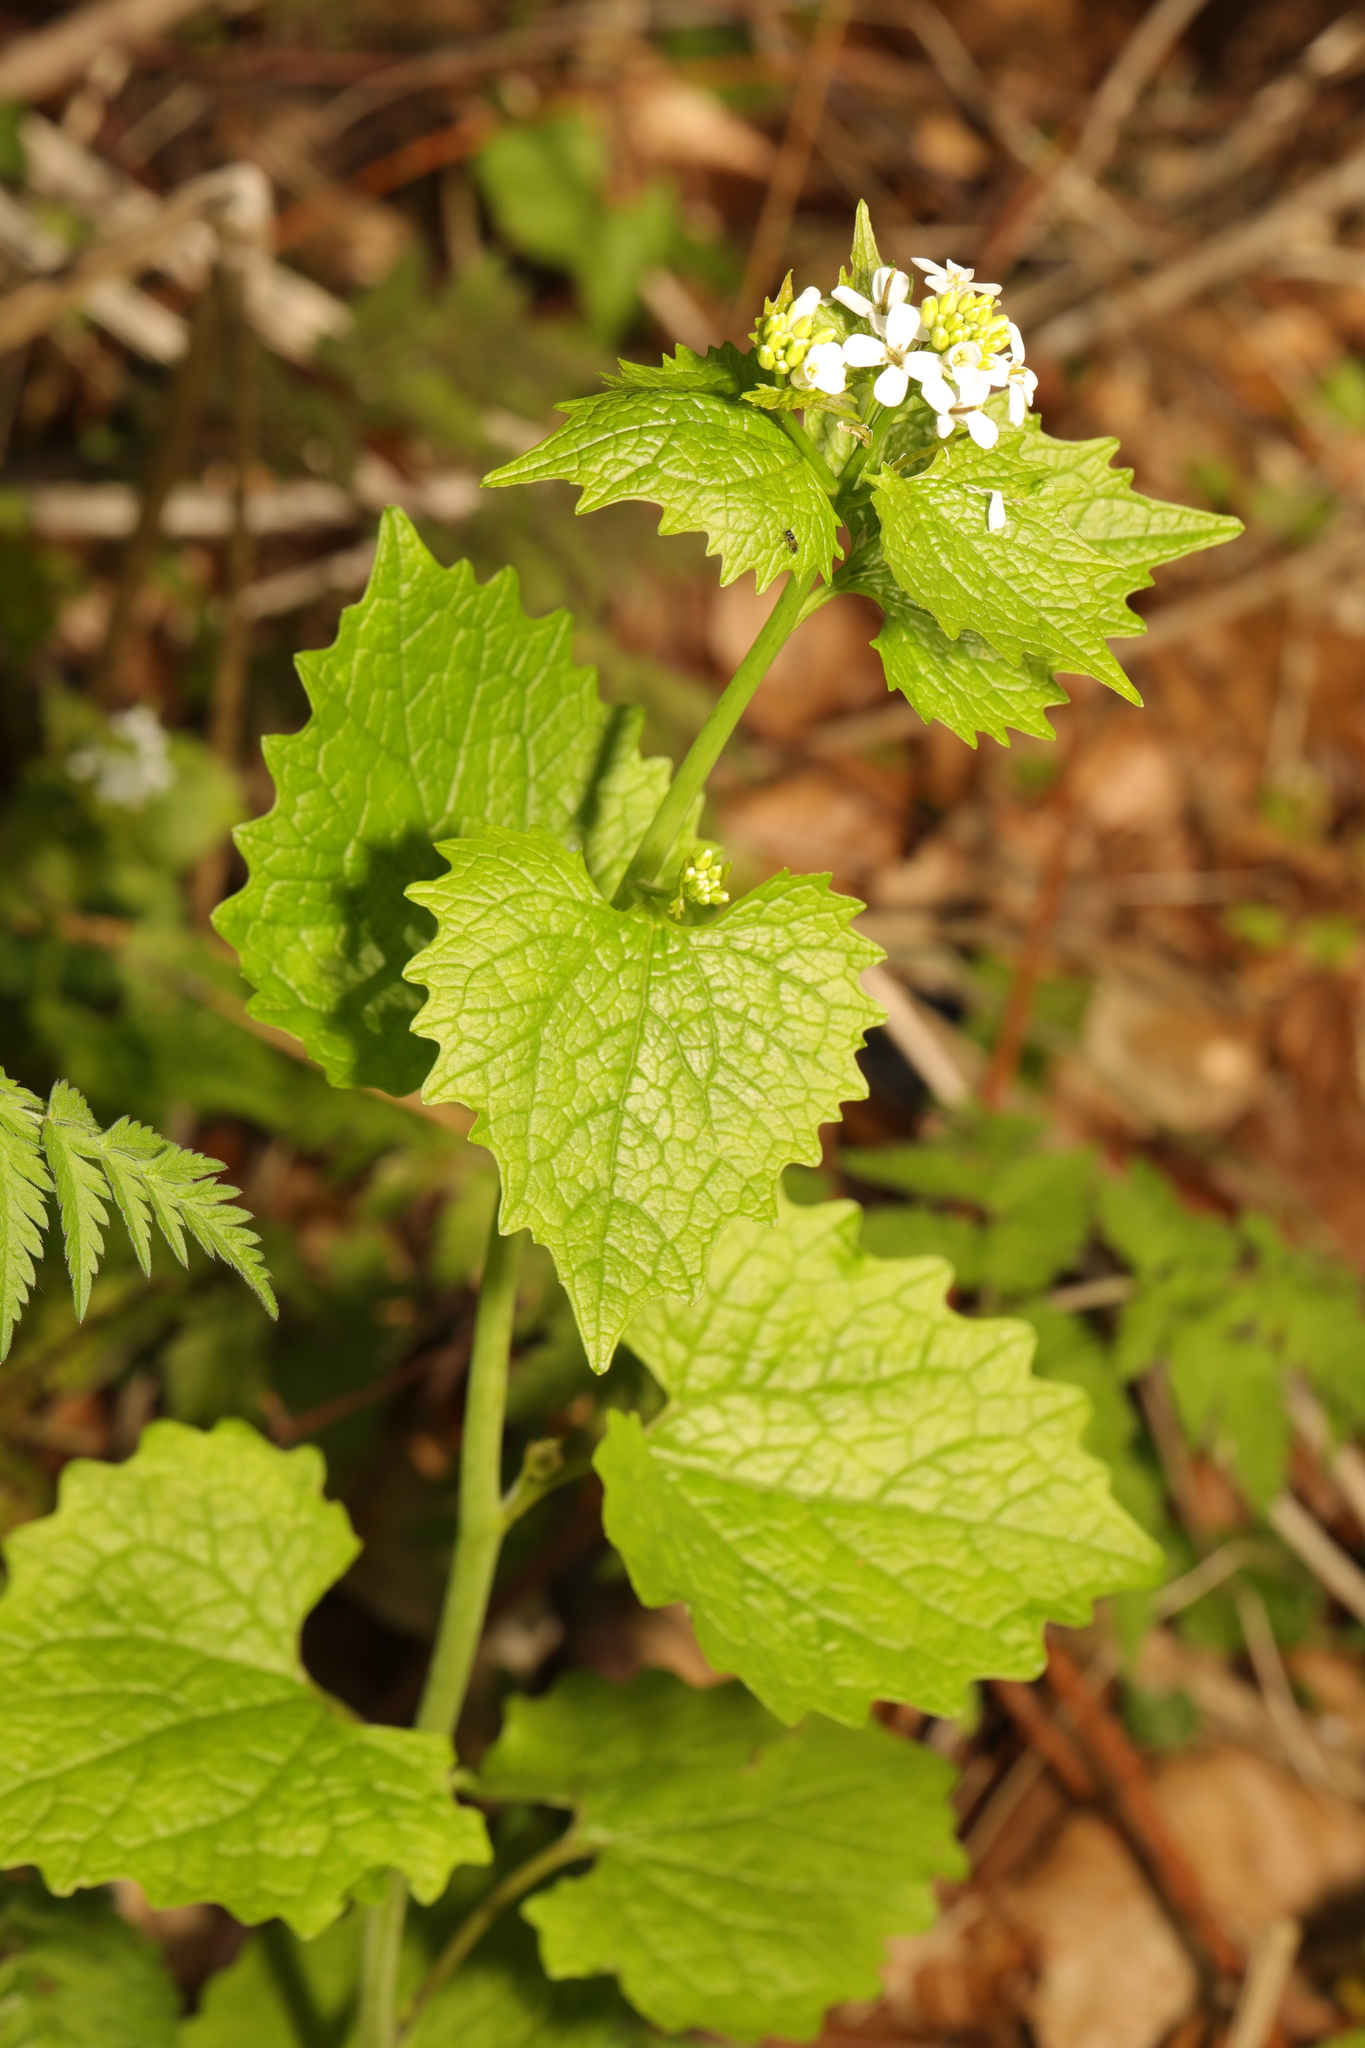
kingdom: Plantae
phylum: Tracheophyta
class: Magnoliopsida
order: Brassicales
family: Brassicaceae
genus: Alliaria
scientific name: Alliaria petiolata
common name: Garlic mustard
